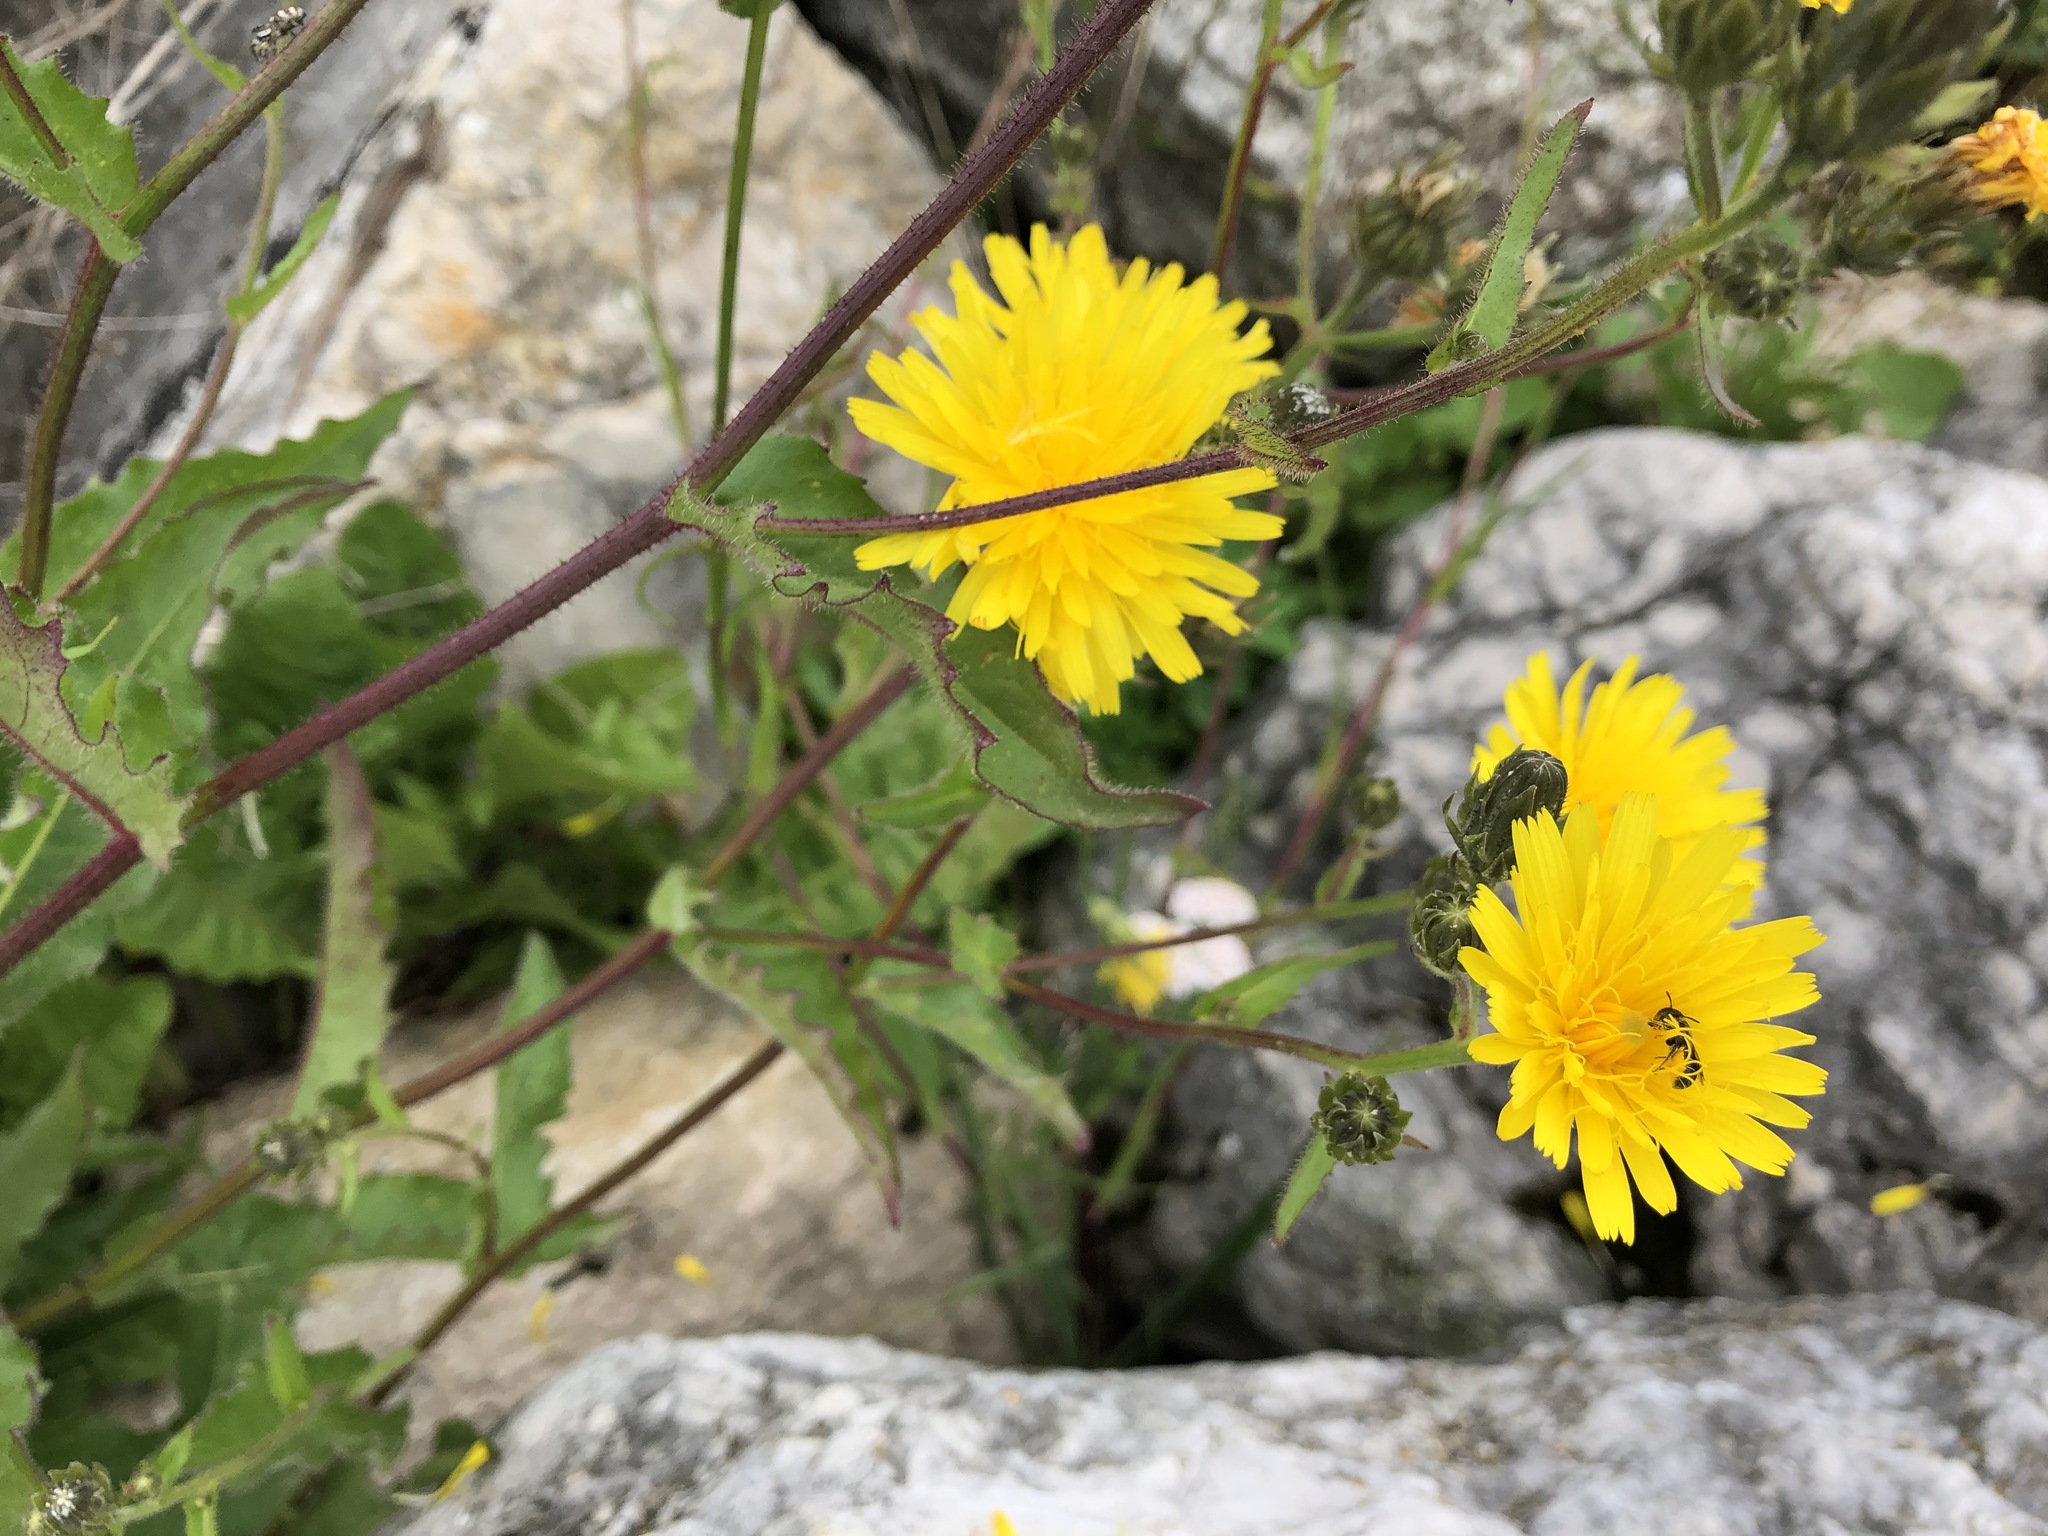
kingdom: Plantae
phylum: Tracheophyta
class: Magnoliopsida
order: Asterales
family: Asteraceae
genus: Picris
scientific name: Picris hieracioides
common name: Hawkweed oxtongue
